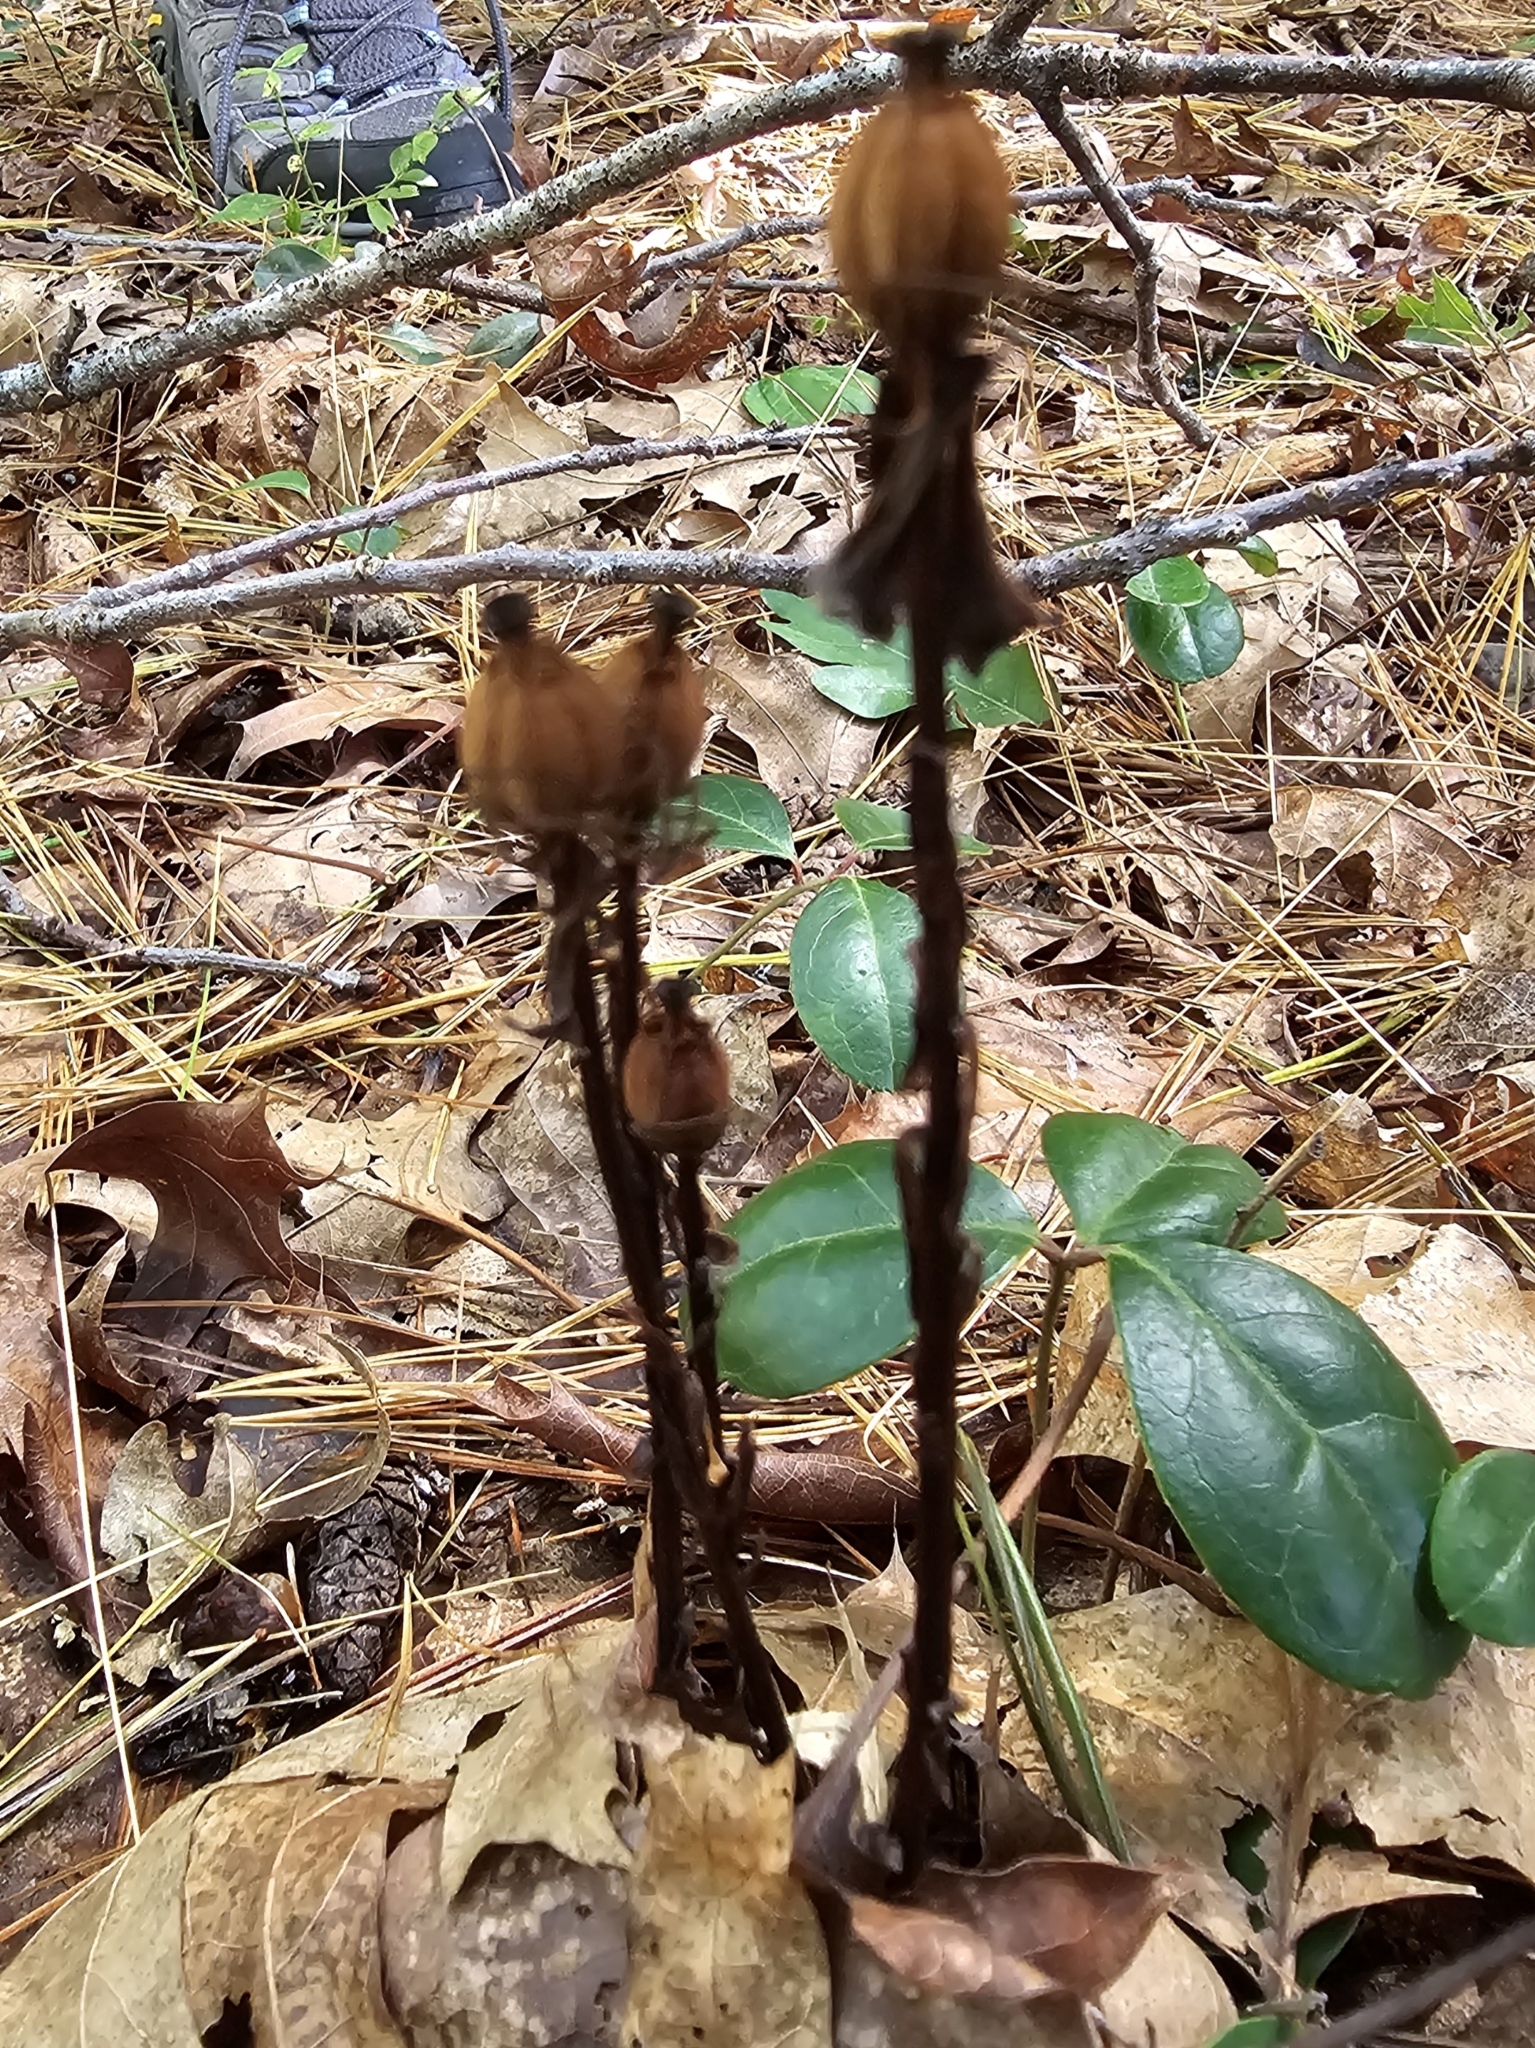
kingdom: Plantae
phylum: Tracheophyta
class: Magnoliopsida
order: Ericales
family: Ericaceae
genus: Monotropa
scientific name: Monotropa uniflora
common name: Convulsion root
